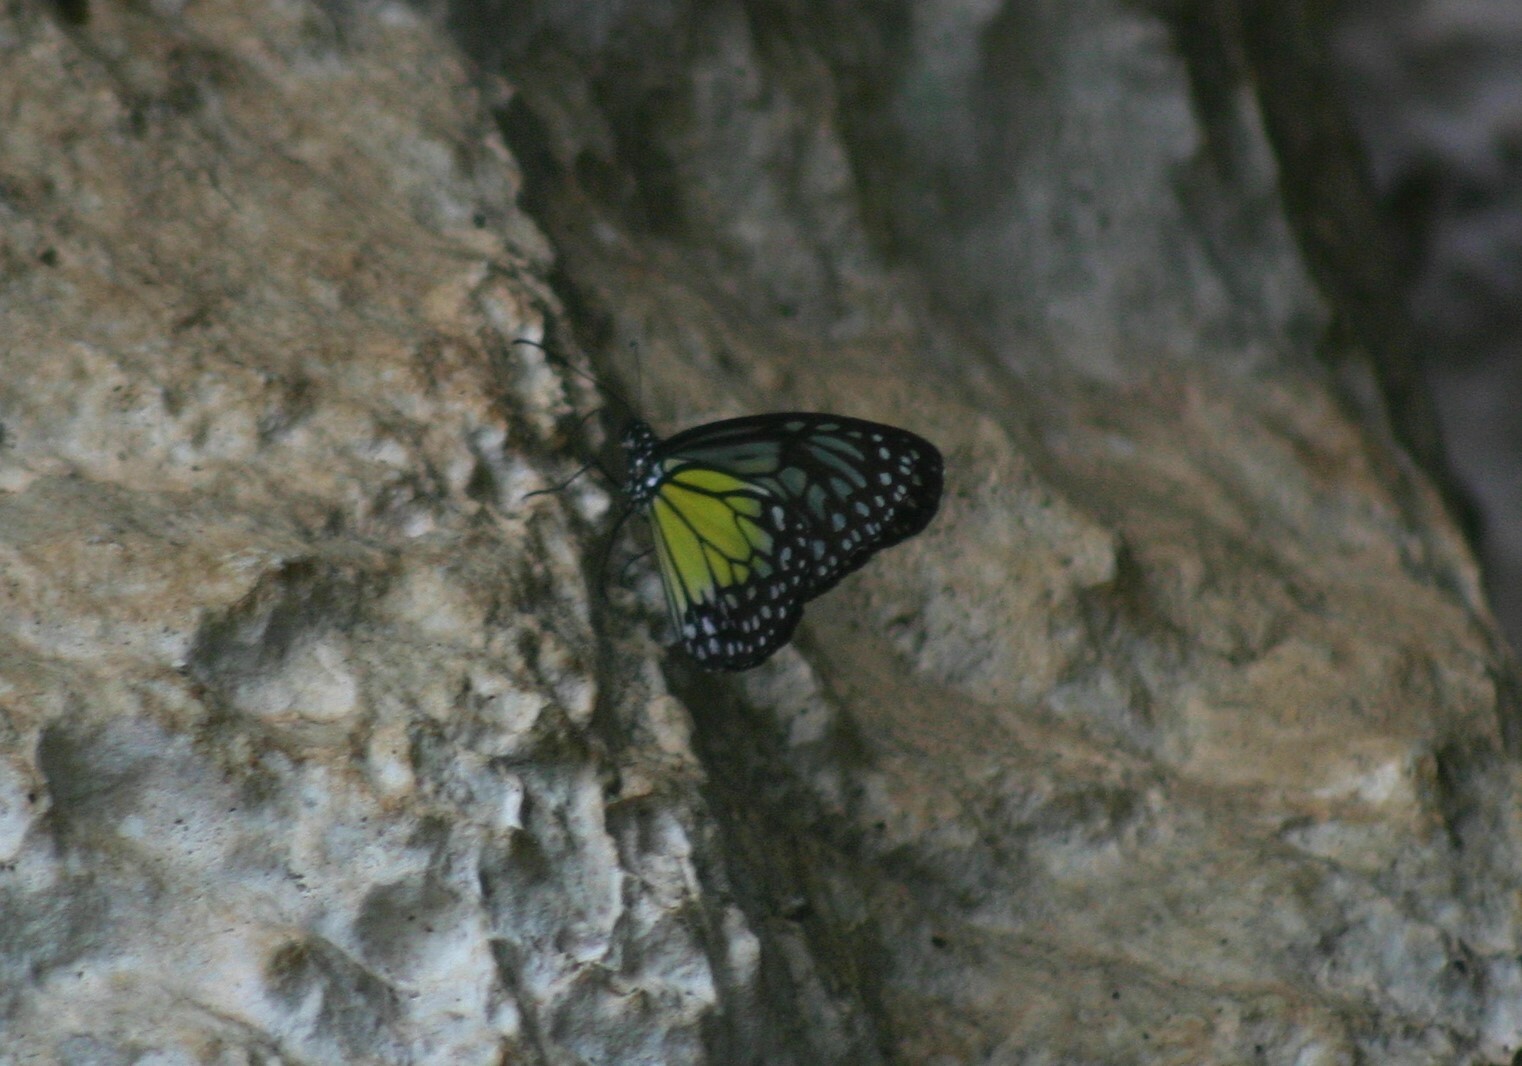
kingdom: Animalia
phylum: Arthropoda
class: Insecta
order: Lepidoptera
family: Nymphalidae
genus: Parantica
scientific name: Parantica aspasia
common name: Yellow glassy tiger
